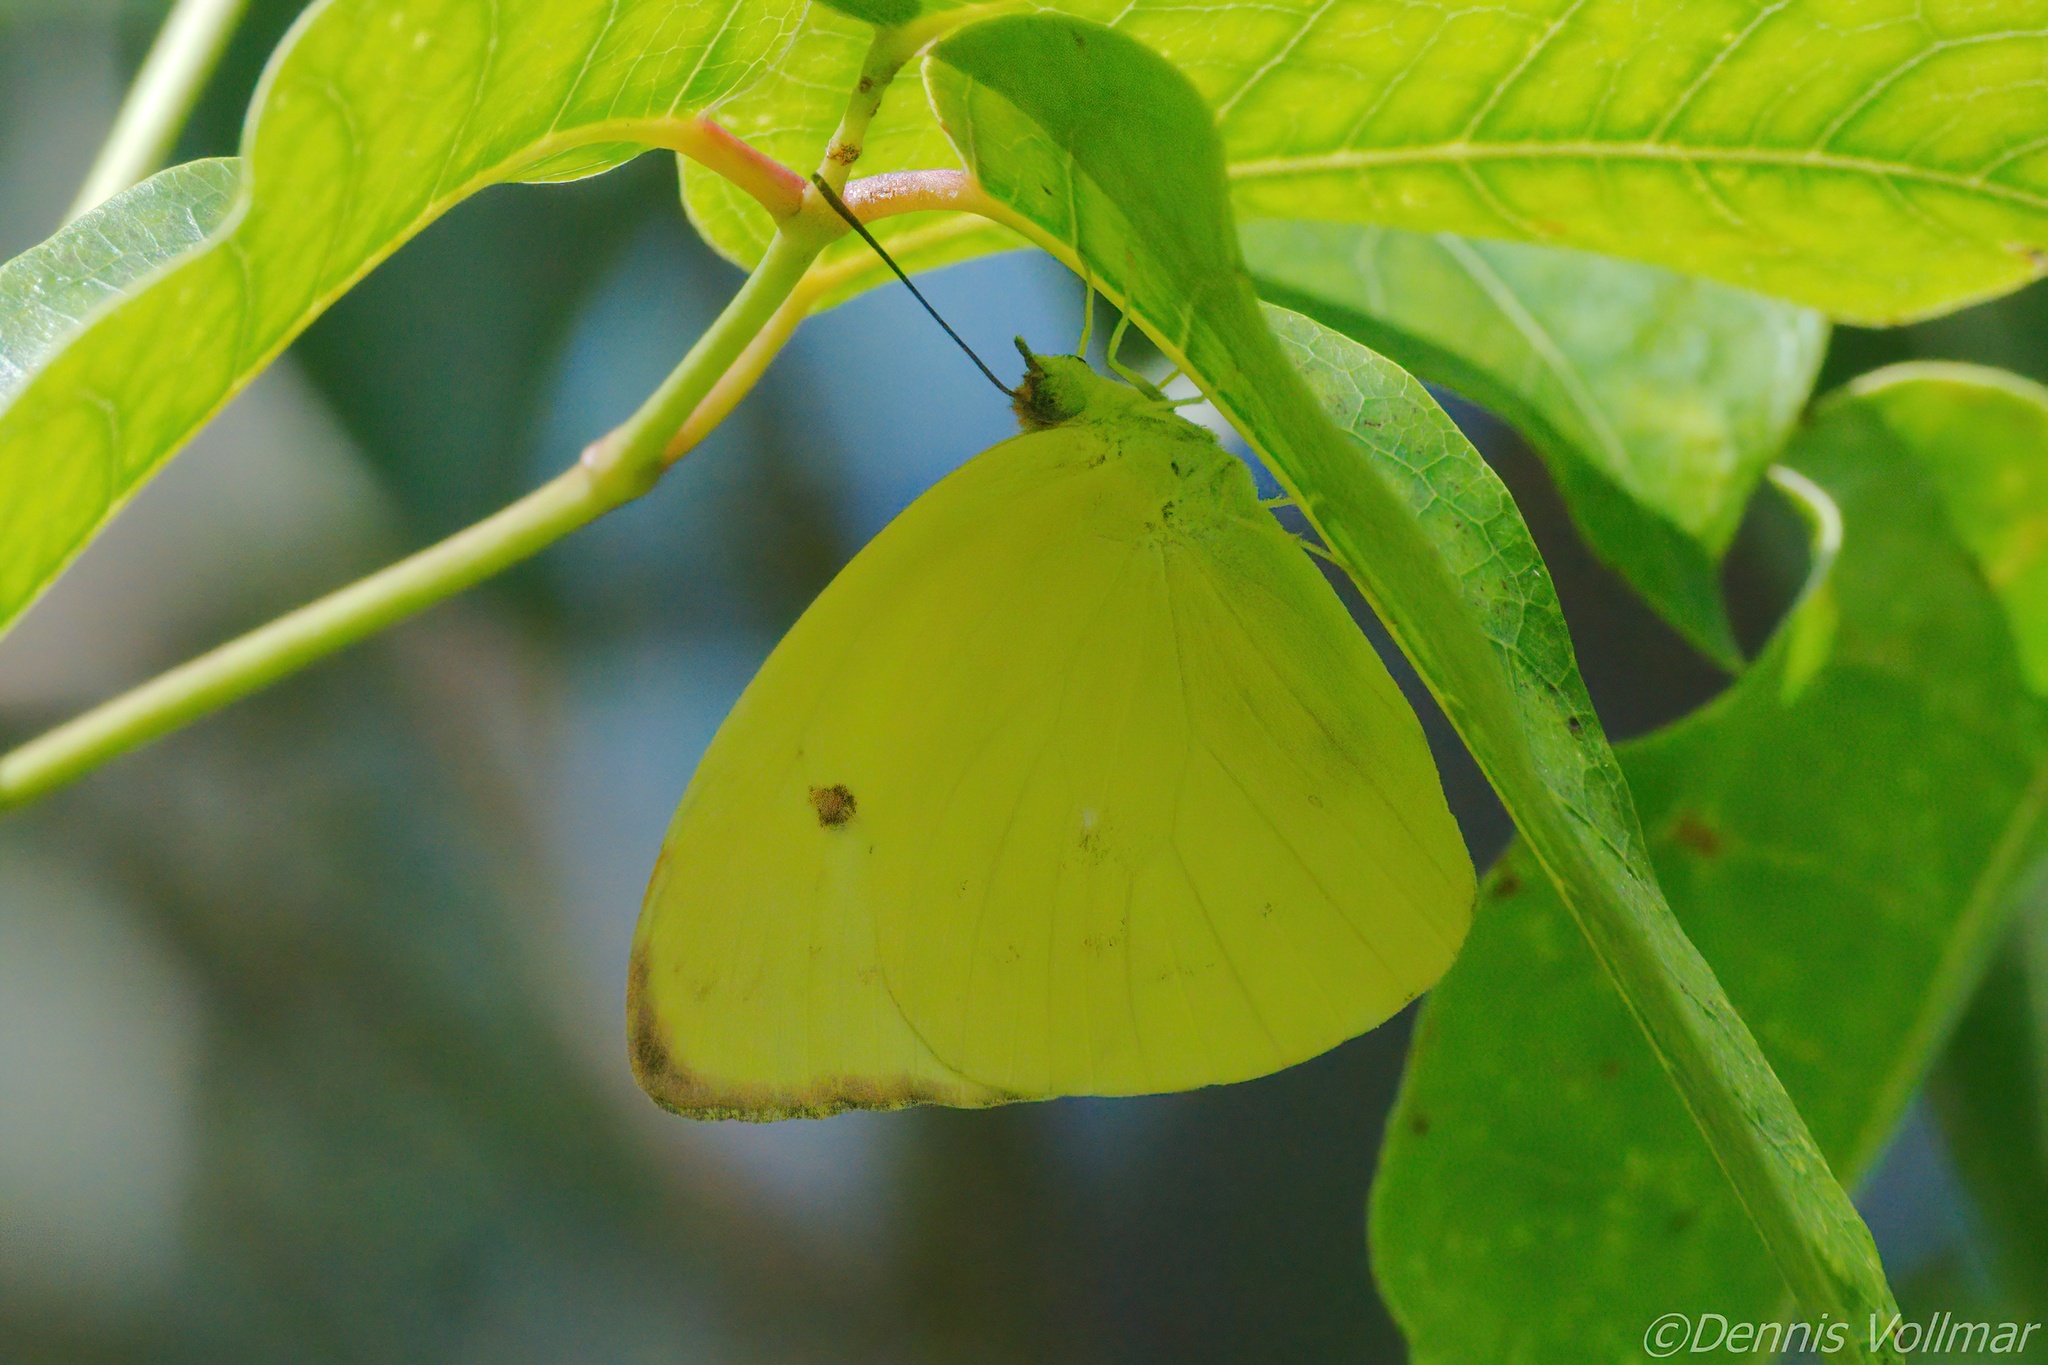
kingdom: Animalia
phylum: Arthropoda
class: Insecta
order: Lepidoptera
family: Pieridae
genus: Aphrissa
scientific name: Aphrissa statira
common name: Statira sulphur
